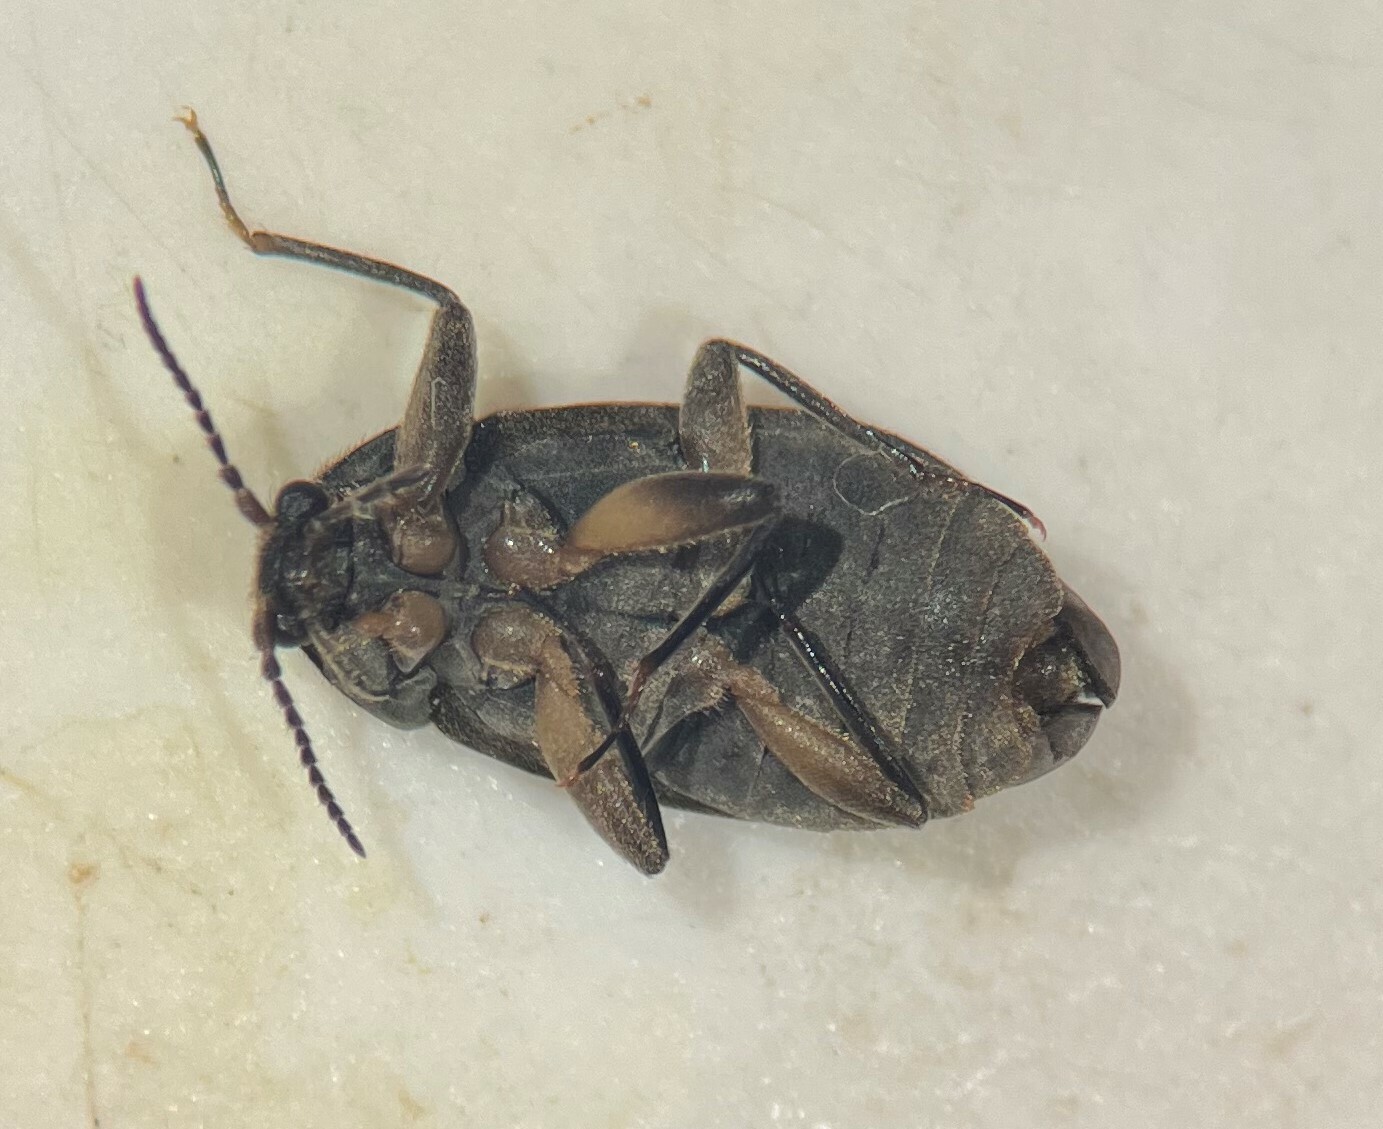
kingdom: Animalia
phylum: Arthropoda
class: Insecta
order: Coleoptera
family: Psephenidae
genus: Psephenus
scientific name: Psephenus herricki
